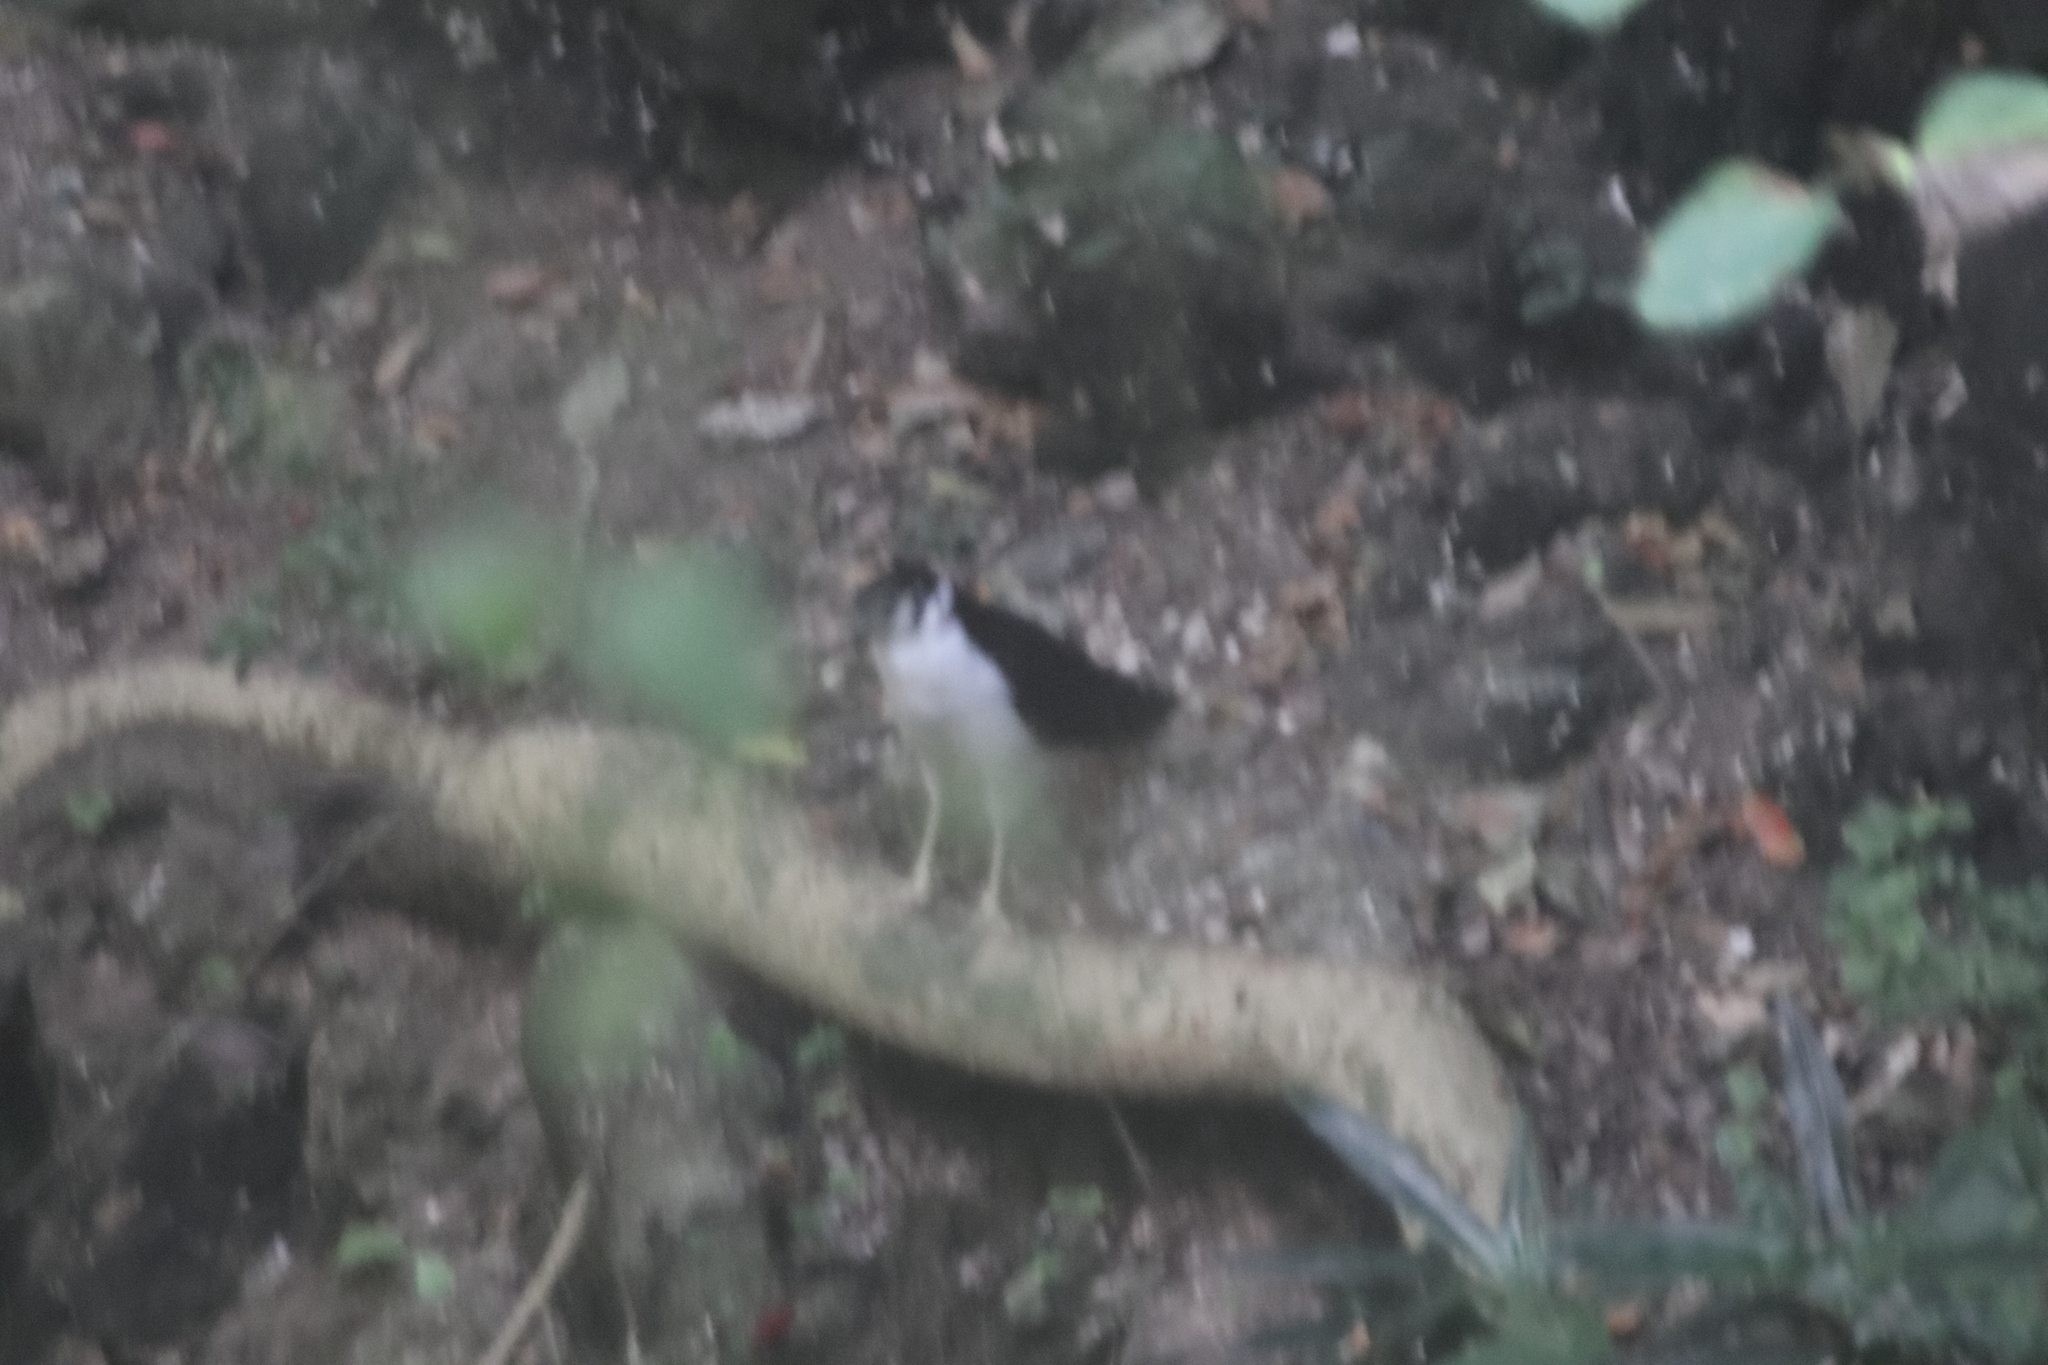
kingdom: Animalia
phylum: Chordata
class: Aves
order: Falconiformes
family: Falconidae
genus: Micrastur
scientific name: Micrastur semitorquatus
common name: Collared forest-falcon
